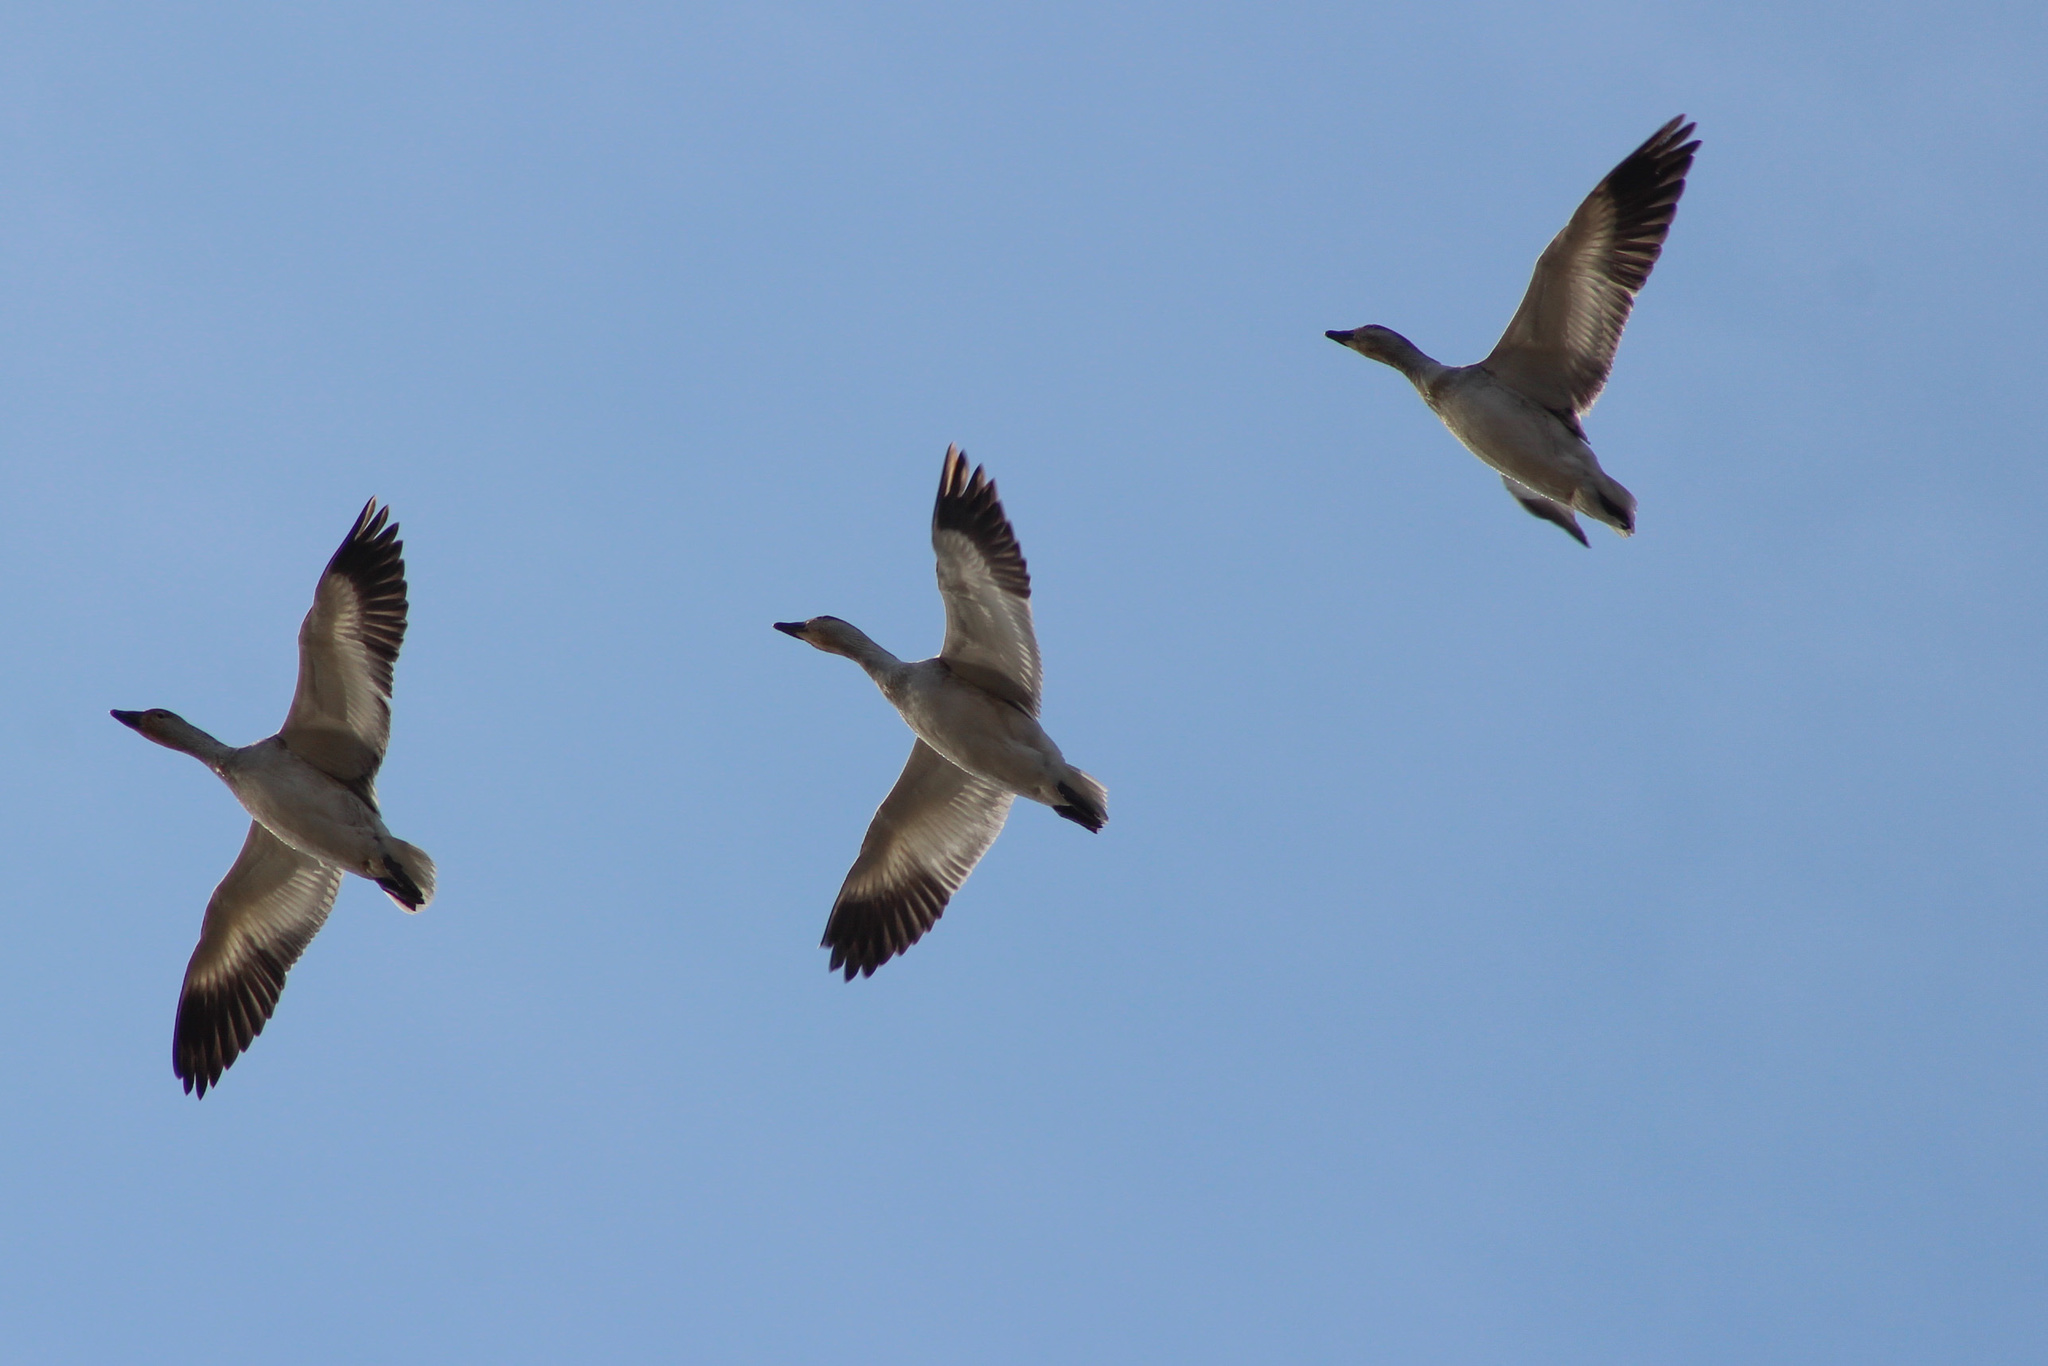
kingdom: Animalia
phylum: Chordata
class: Aves
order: Anseriformes
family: Anatidae
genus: Anser
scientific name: Anser caerulescens
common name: Snow goose
